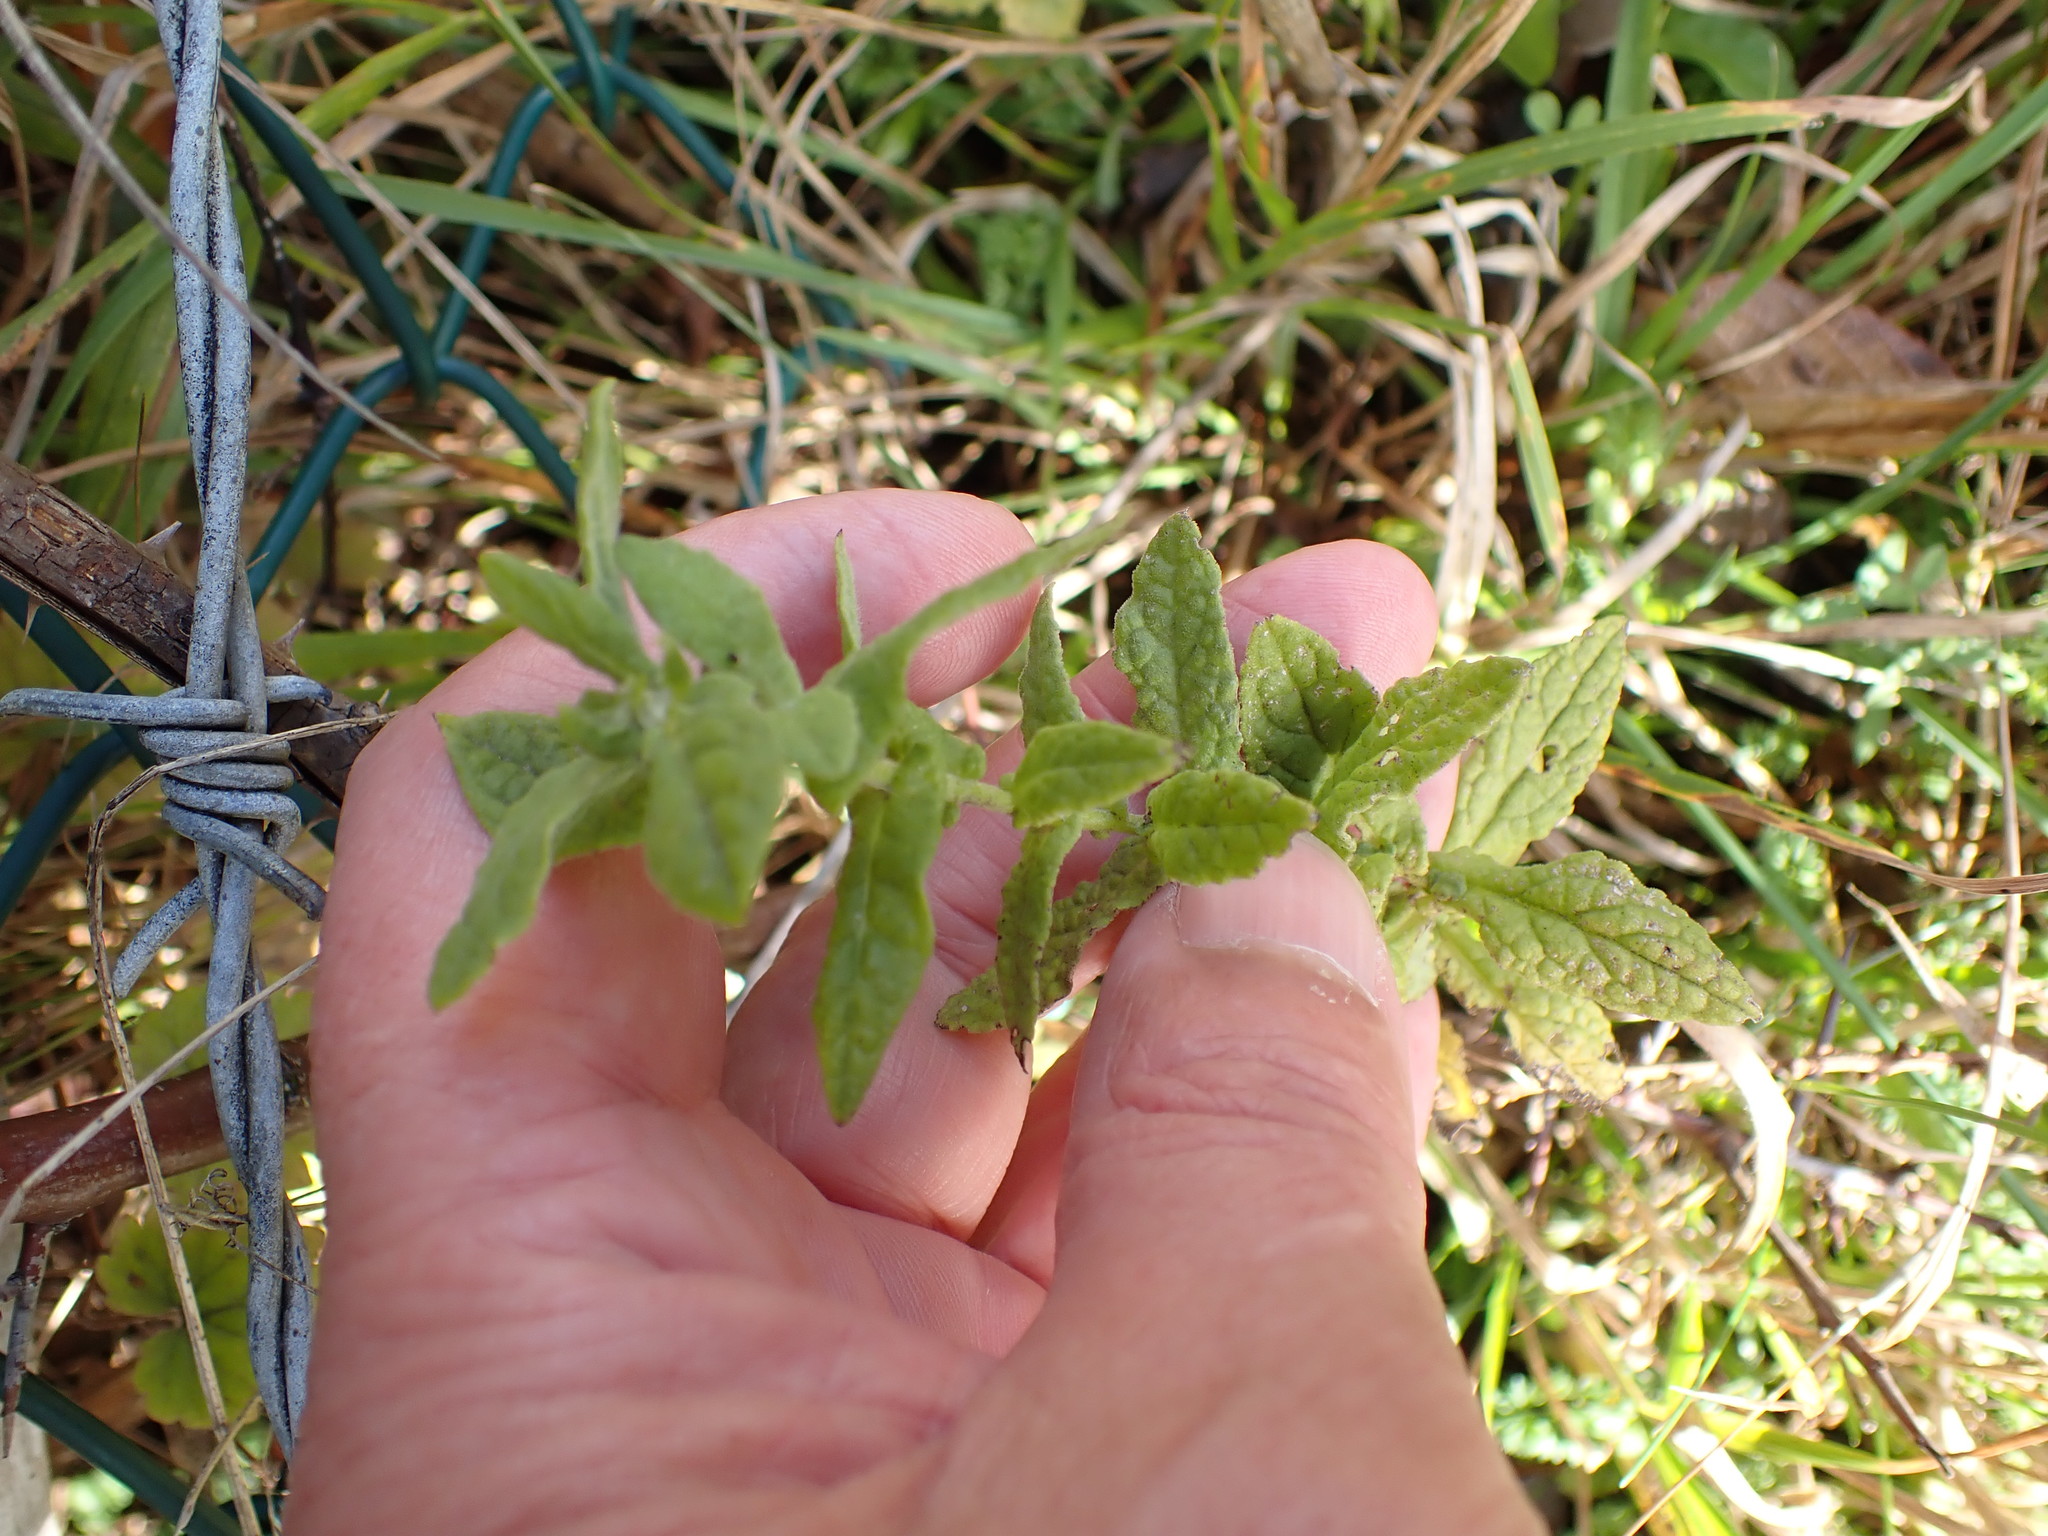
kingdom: Plantae
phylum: Tracheophyta
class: Magnoliopsida
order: Asterales
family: Asteraceae
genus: Pulicaria
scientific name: Pulicaria dysenterica
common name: Common fleabane
